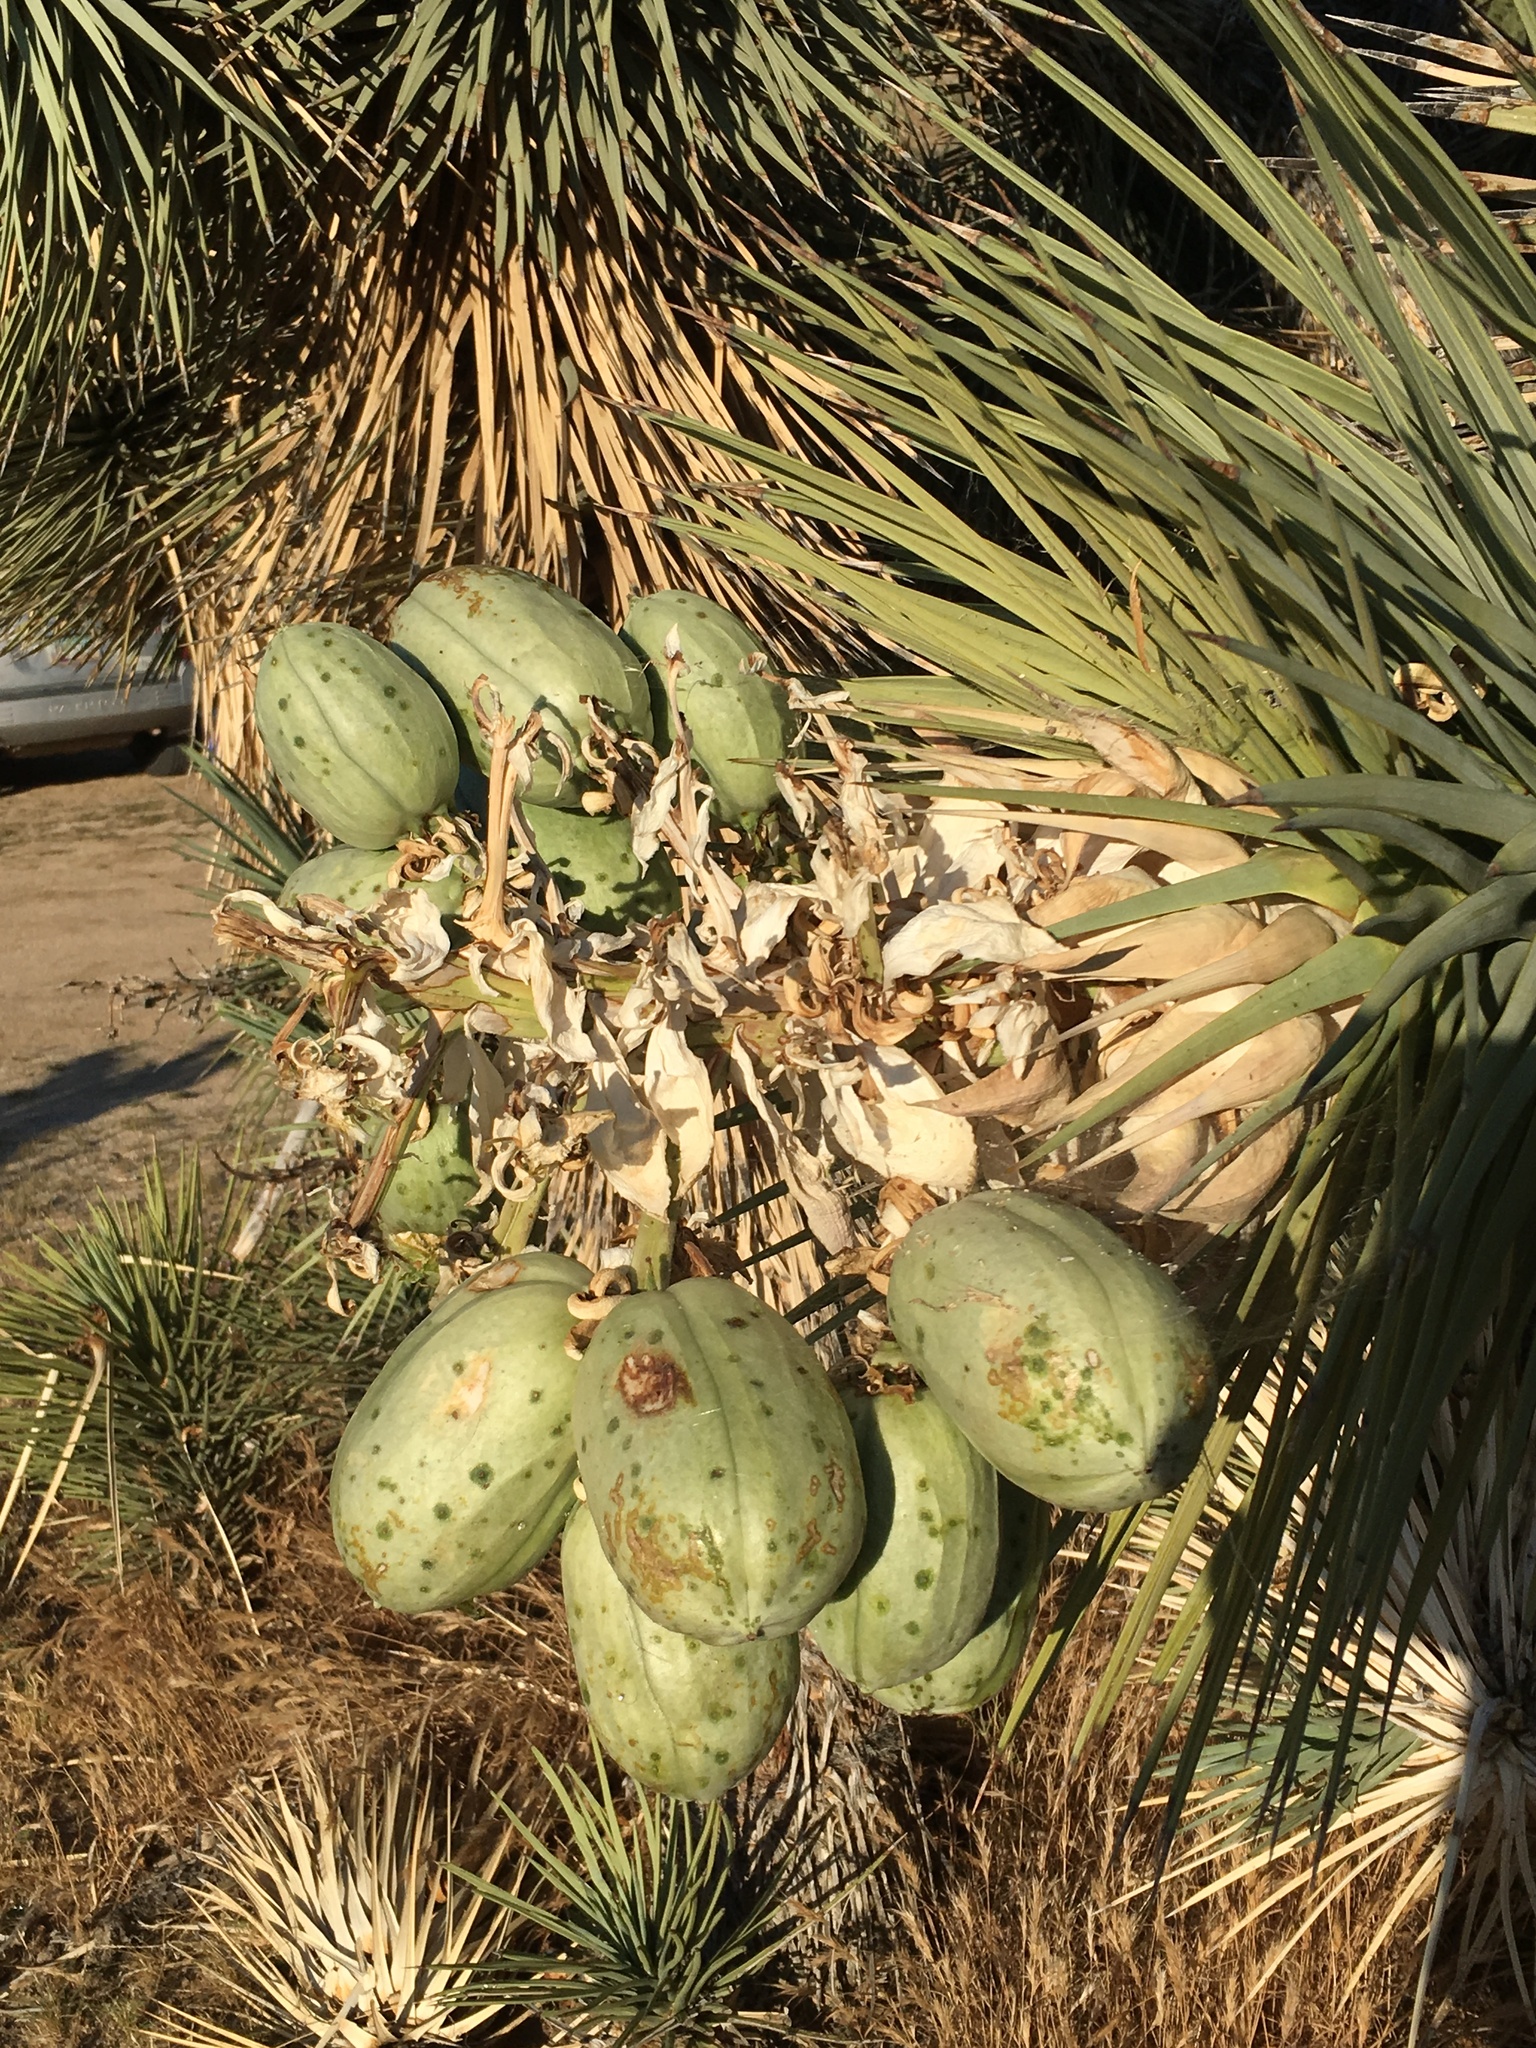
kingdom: Plantae
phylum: Tracheophyta
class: Liliopsida
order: Asparagales
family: Asparagaceae
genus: Yucca
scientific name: Yucca brevifolia
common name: Joshua tree
